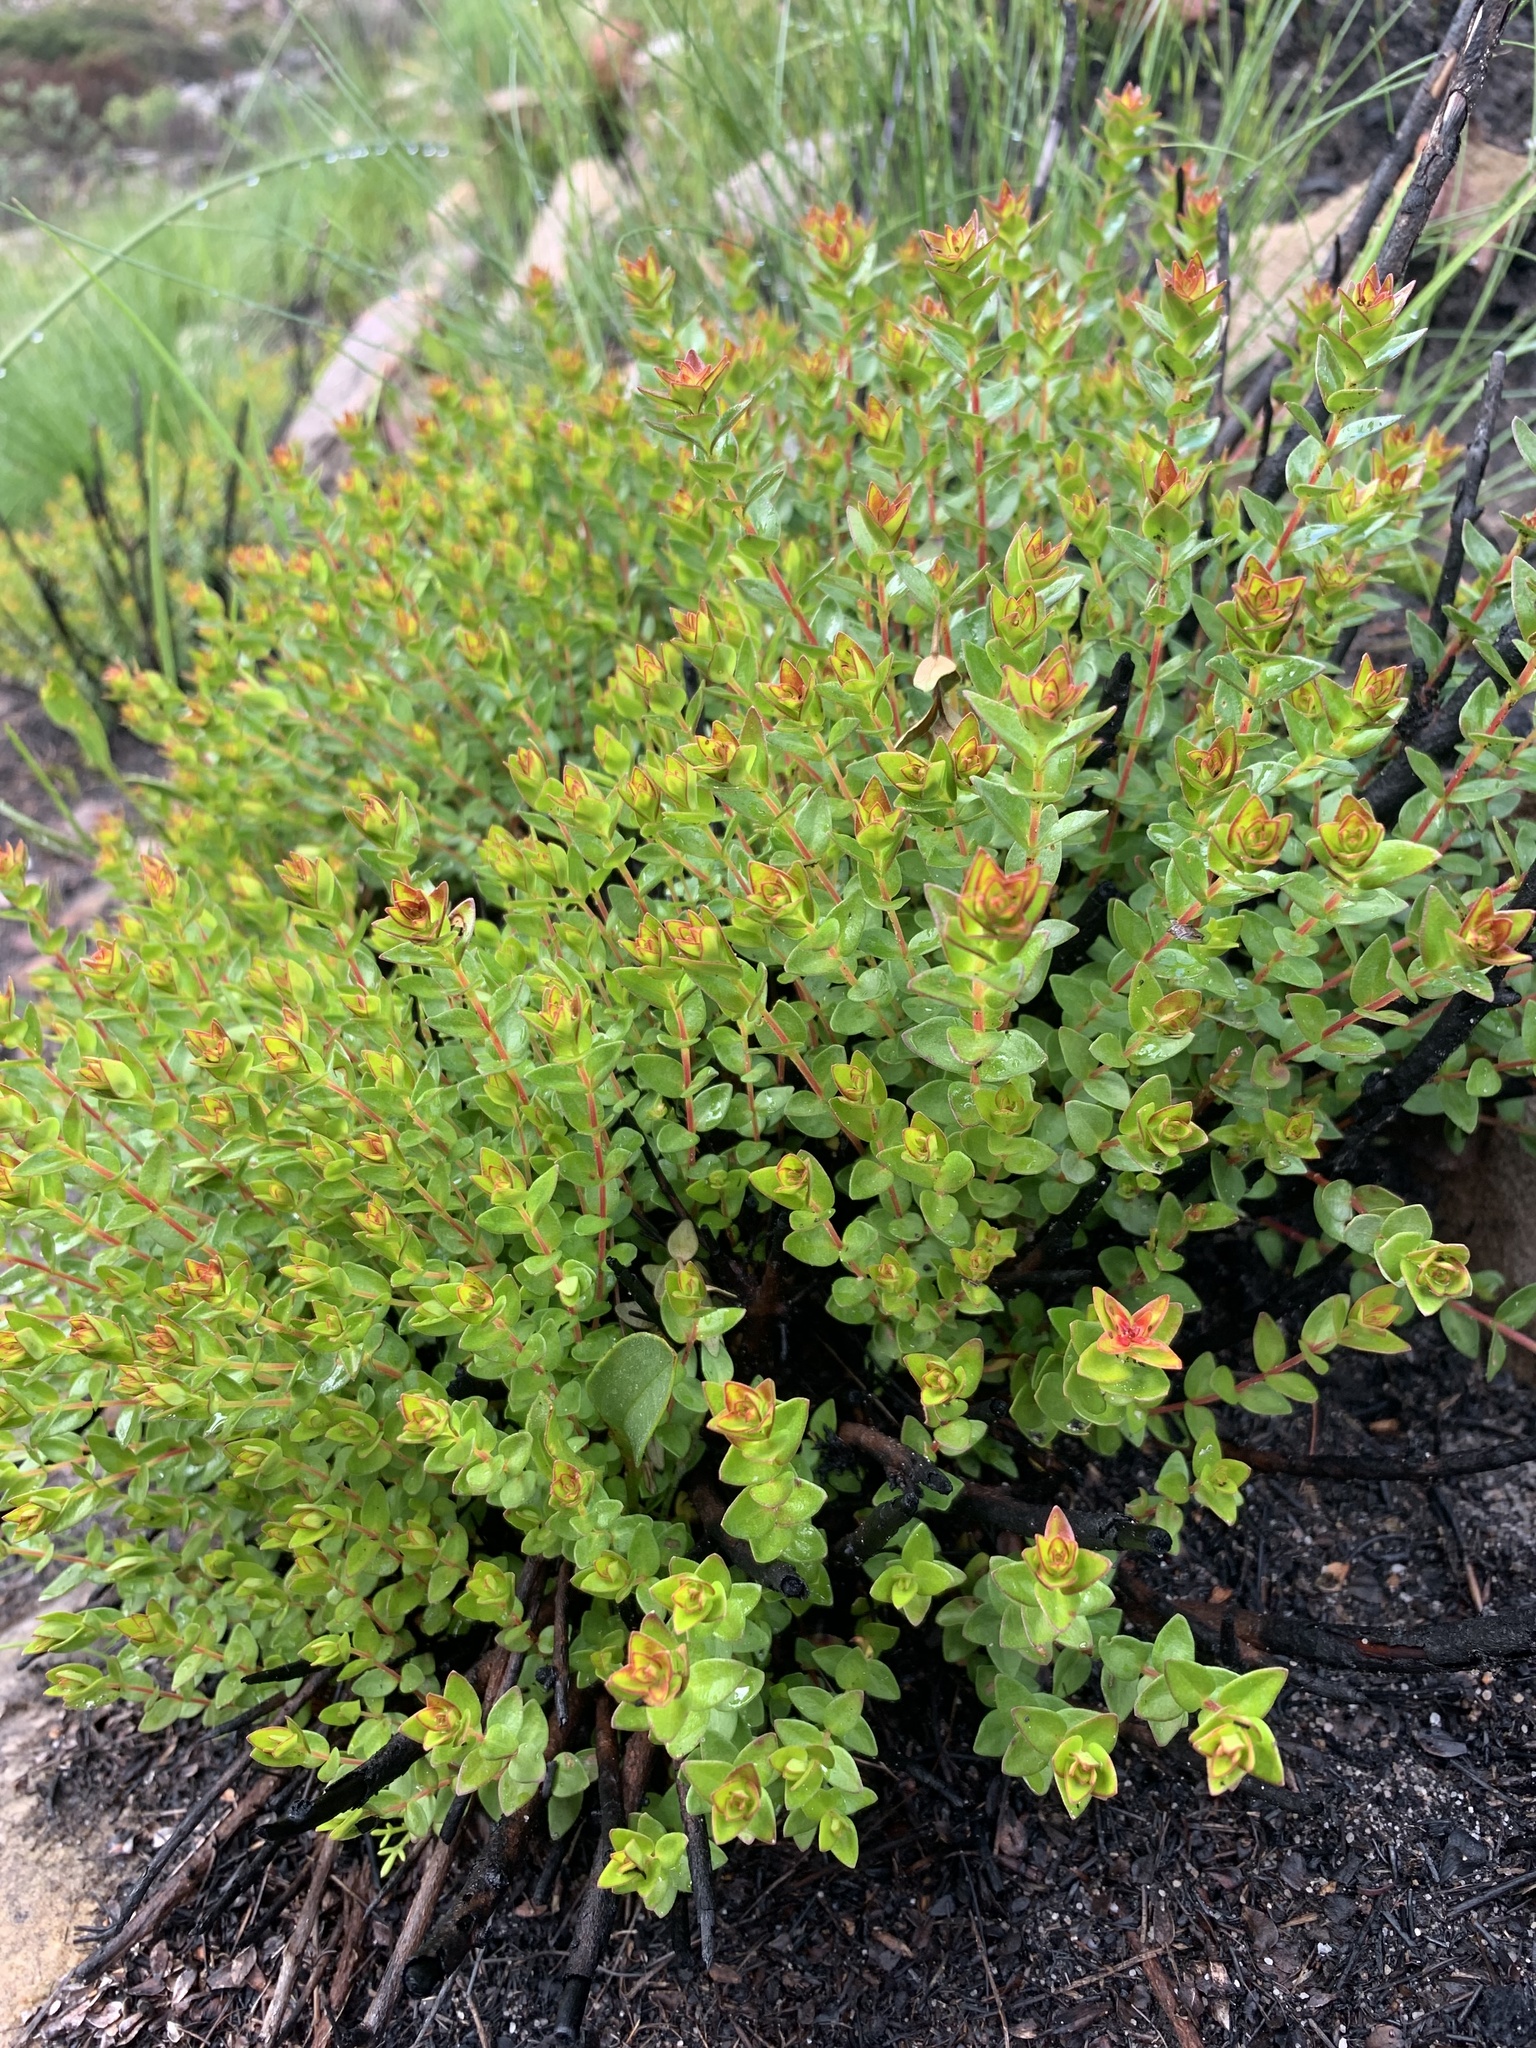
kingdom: Plantae
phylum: Tracheophyta
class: Magnoliopsida
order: Myrtales
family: Penaeaceae
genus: Penaea
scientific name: Penaea mucronata
